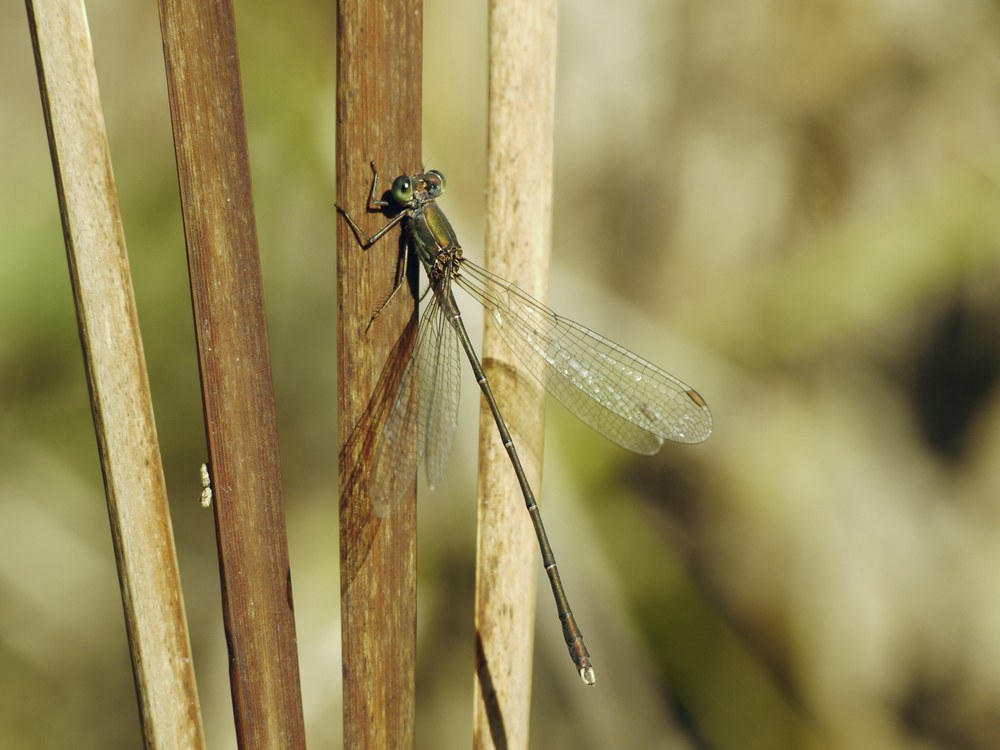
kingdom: Animalia
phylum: Arthropoda
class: Insecta
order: Odonata
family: Lestidae
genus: Chalcolestes
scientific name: Chalcolestes parvidens
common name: Eastern willow spreadwing
